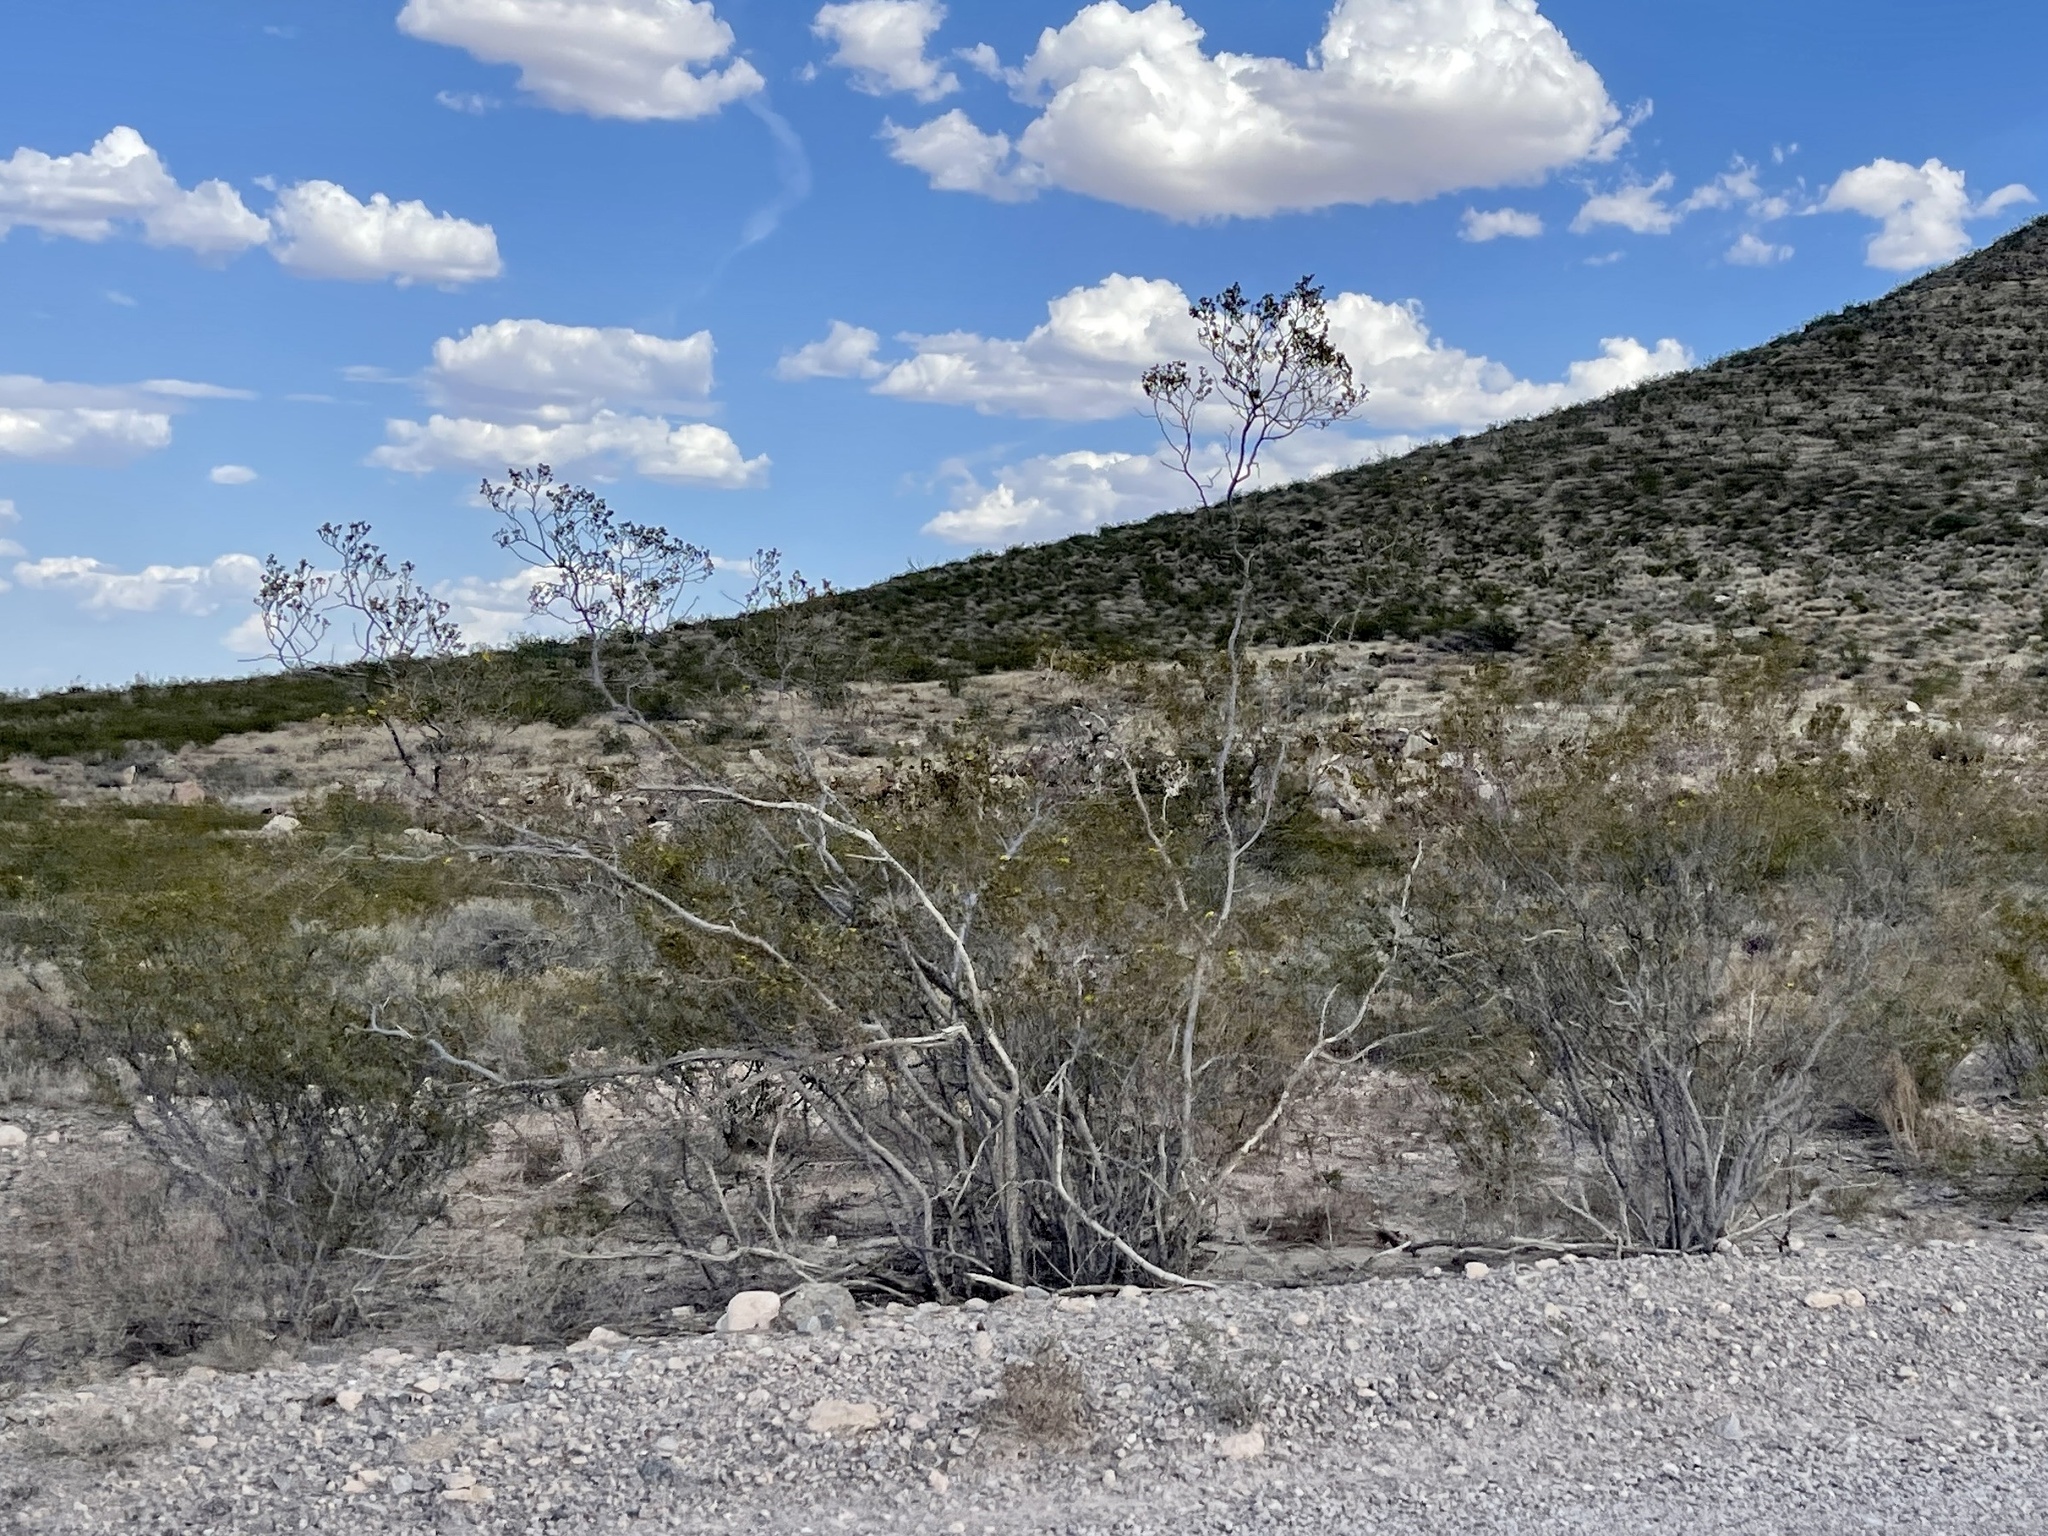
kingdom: Plantae
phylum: Tracheophyta
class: Magnoliopsida
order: Zygophyllales
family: Zygophyllaceae
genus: Larrea
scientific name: Larrea tridentata
